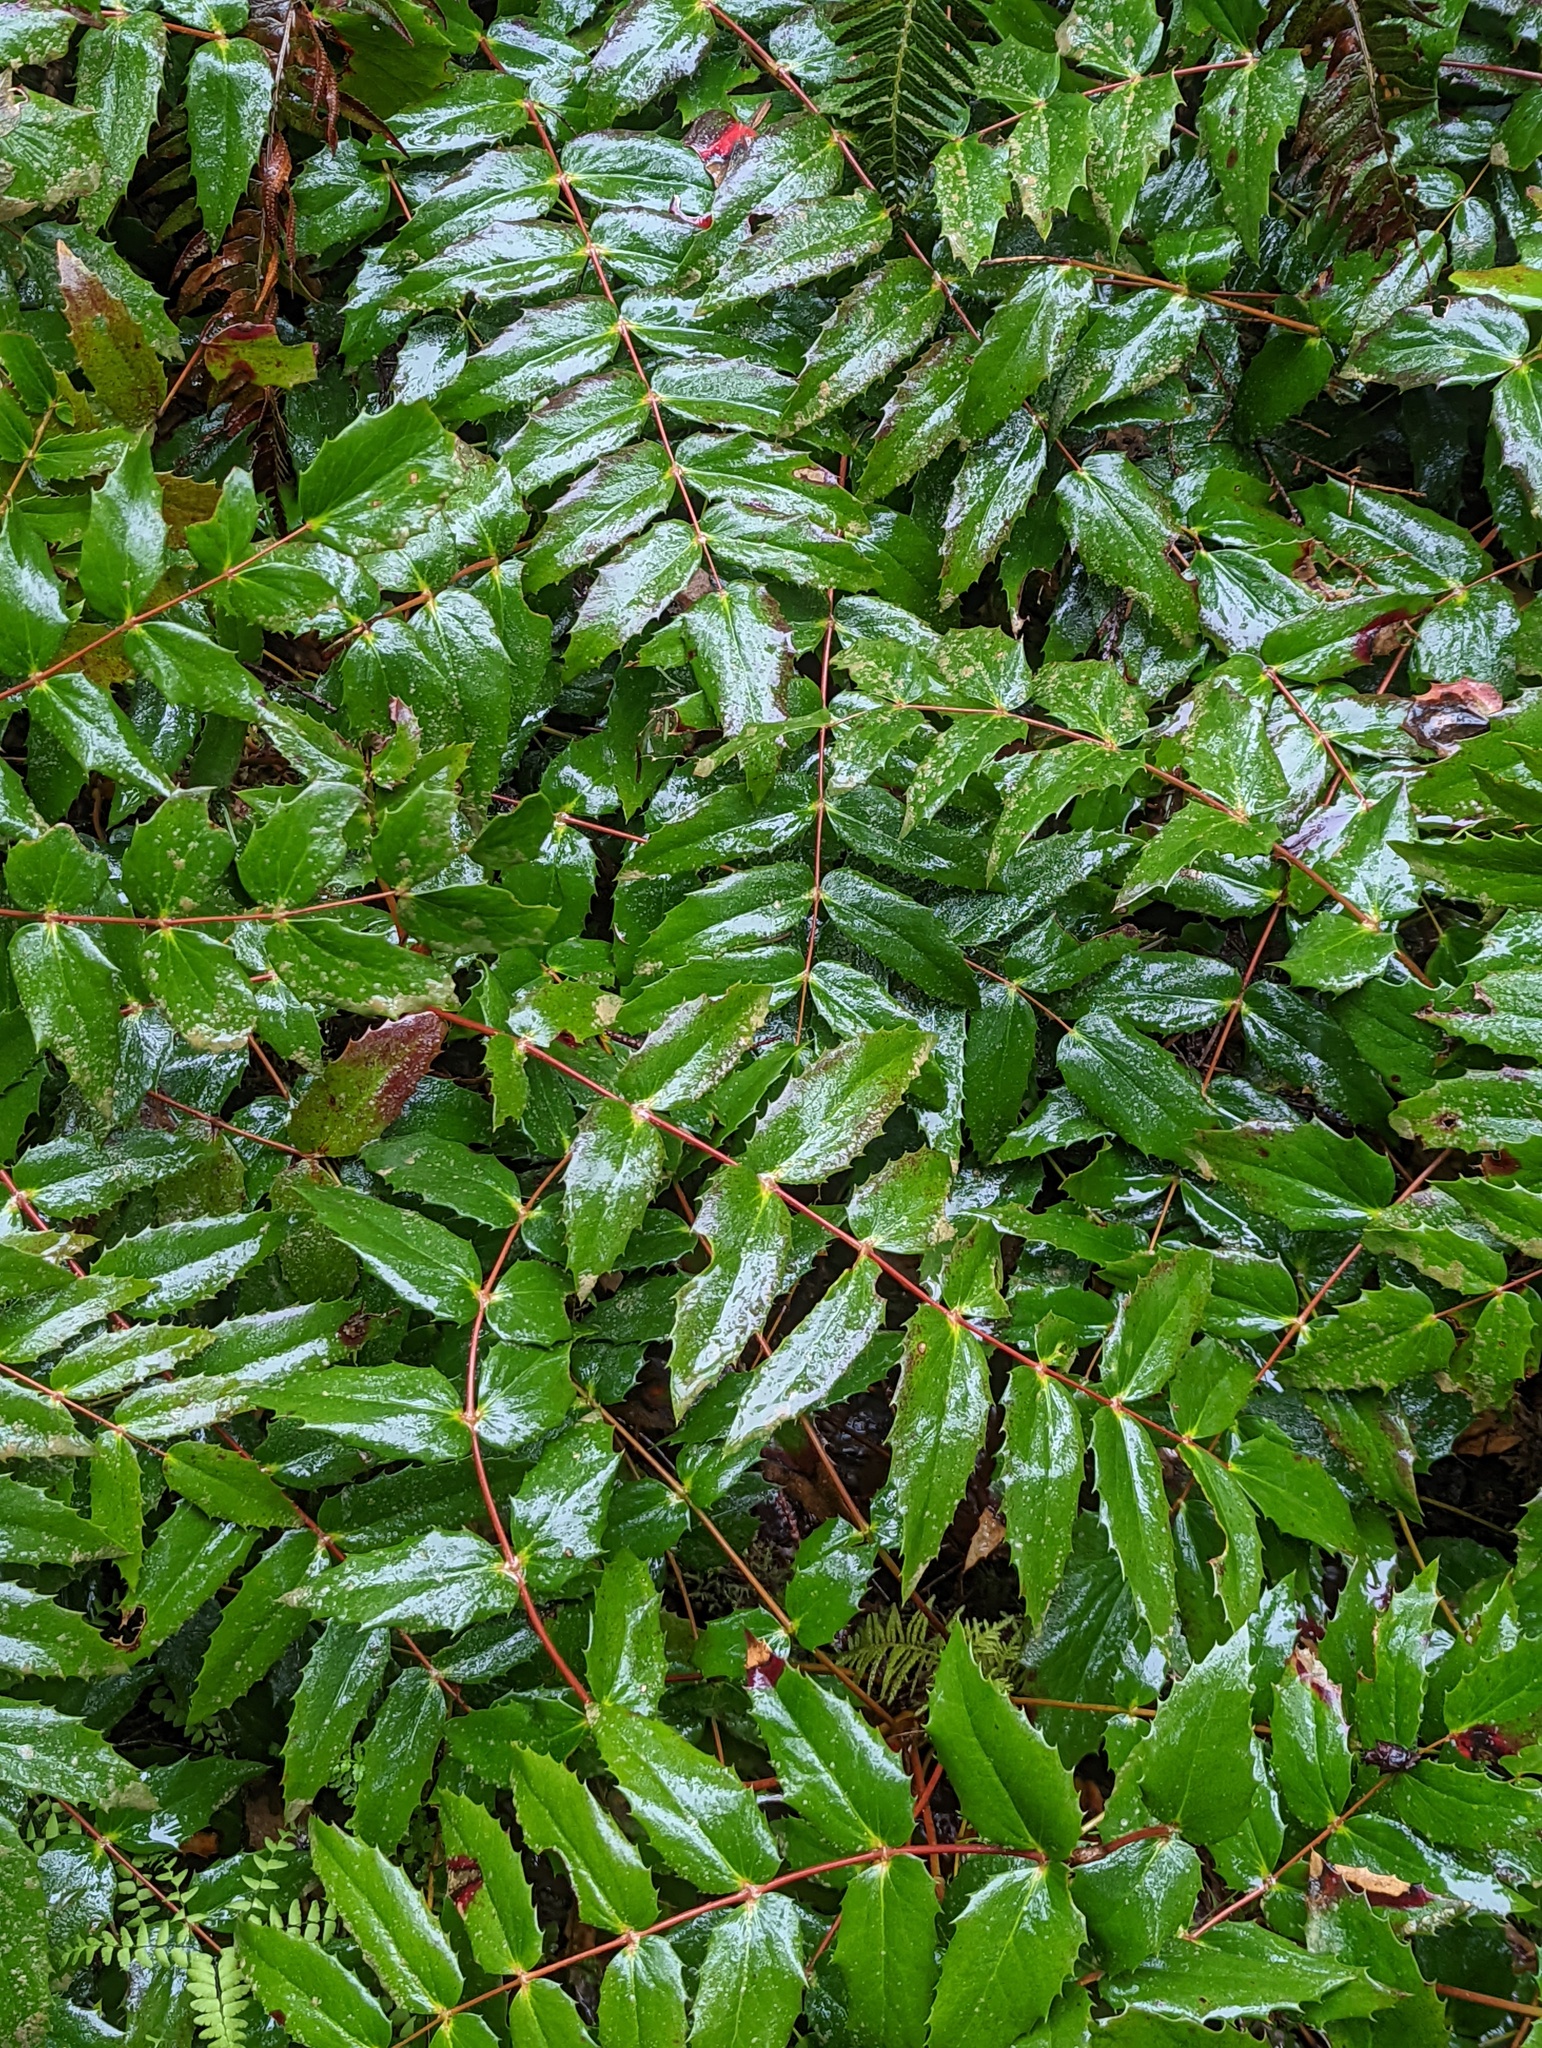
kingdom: Plantae
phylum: Tracheophyta
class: Magnoliopsida
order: Ranunculales
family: Berberidaceae
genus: Mahonia
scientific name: Mahonia nervosa
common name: Cascade oregon-grape
